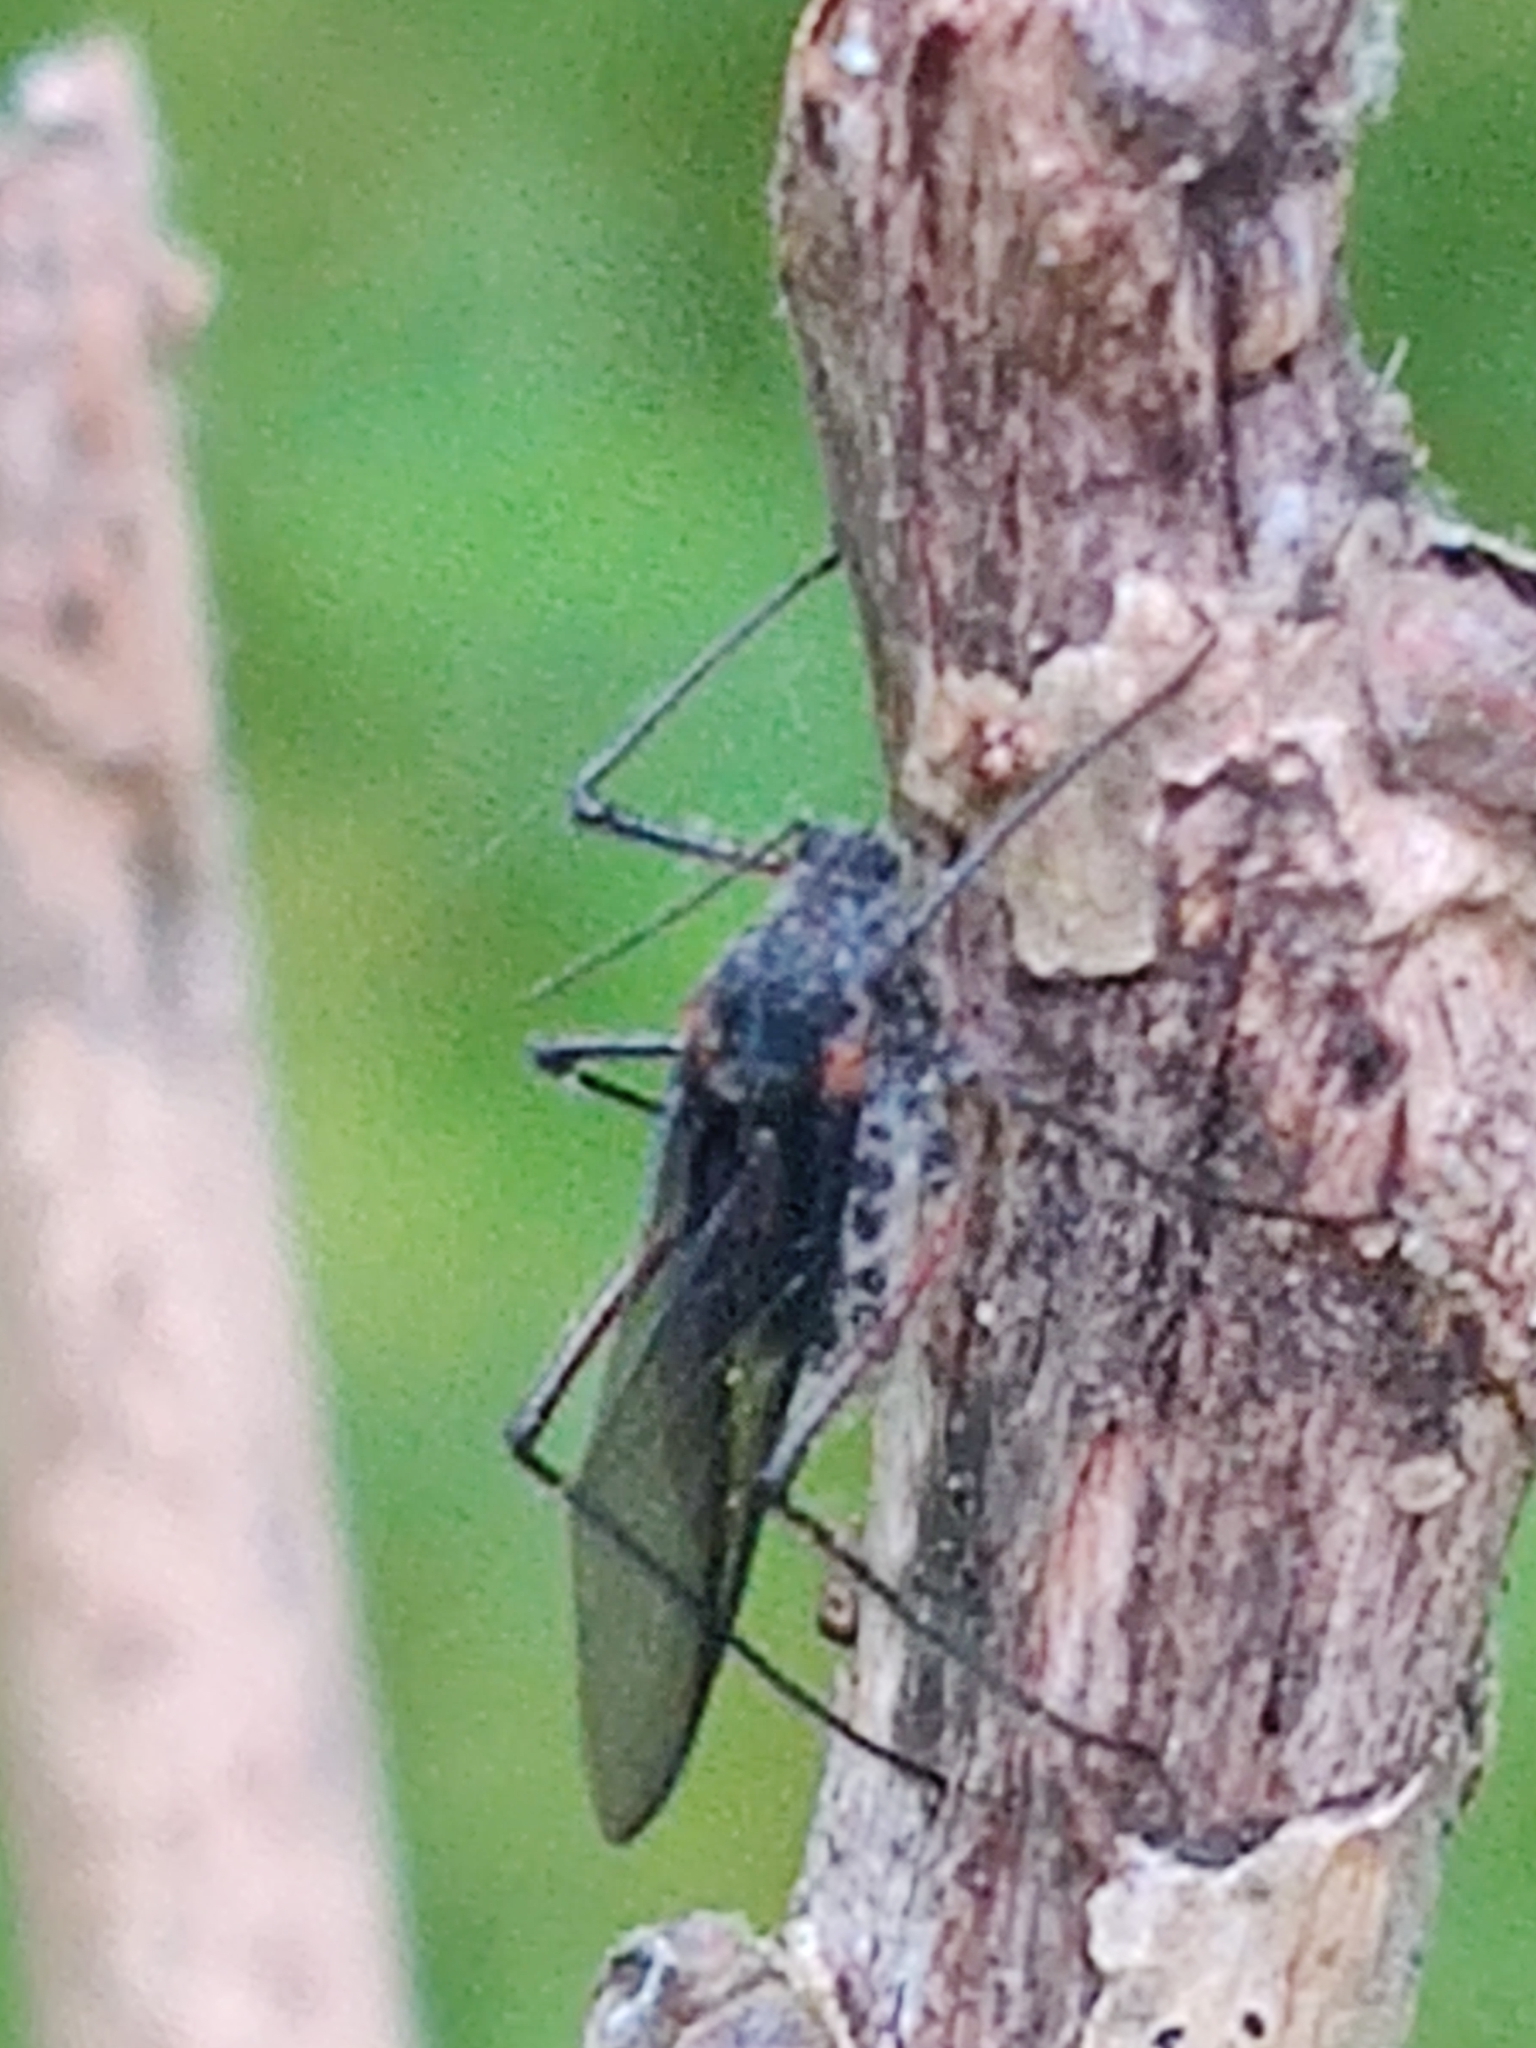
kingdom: Animalia
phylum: Arthropoda
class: Insecta
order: Hemiptera
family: Aphididae
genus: Longistigma
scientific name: Longistigma caryae
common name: Giant bark aphid
